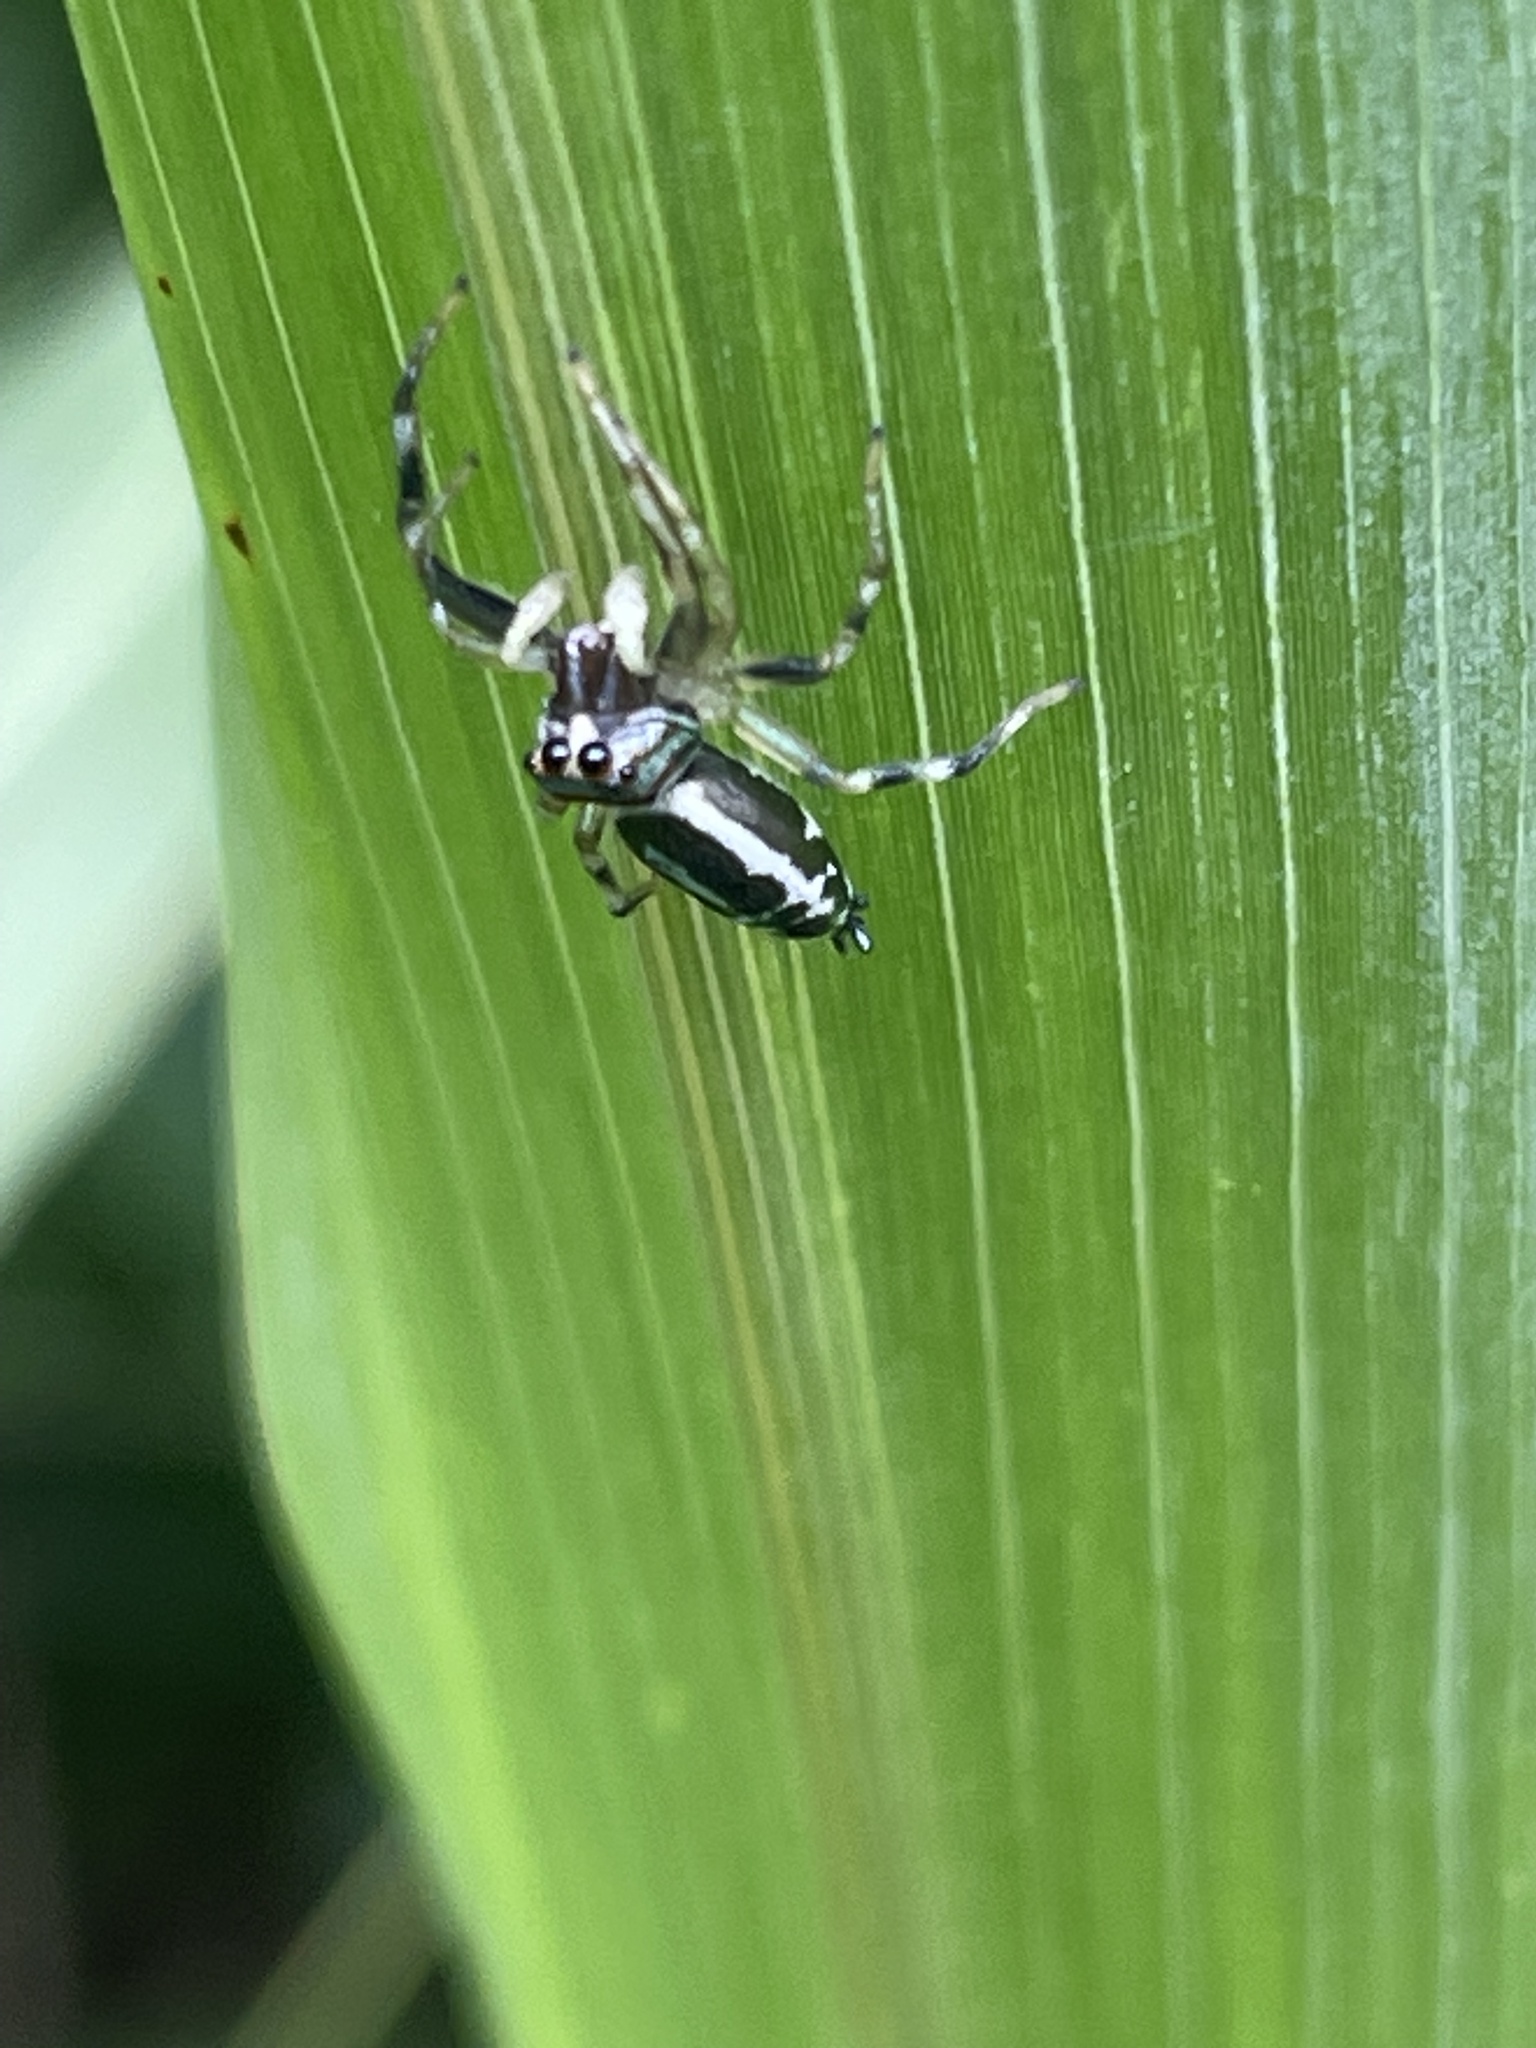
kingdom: Animalia
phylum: Arthropoda
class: Arachnida
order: Araneae
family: Salticidae
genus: Cosmophasis
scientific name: Cosmophasis micarioides
